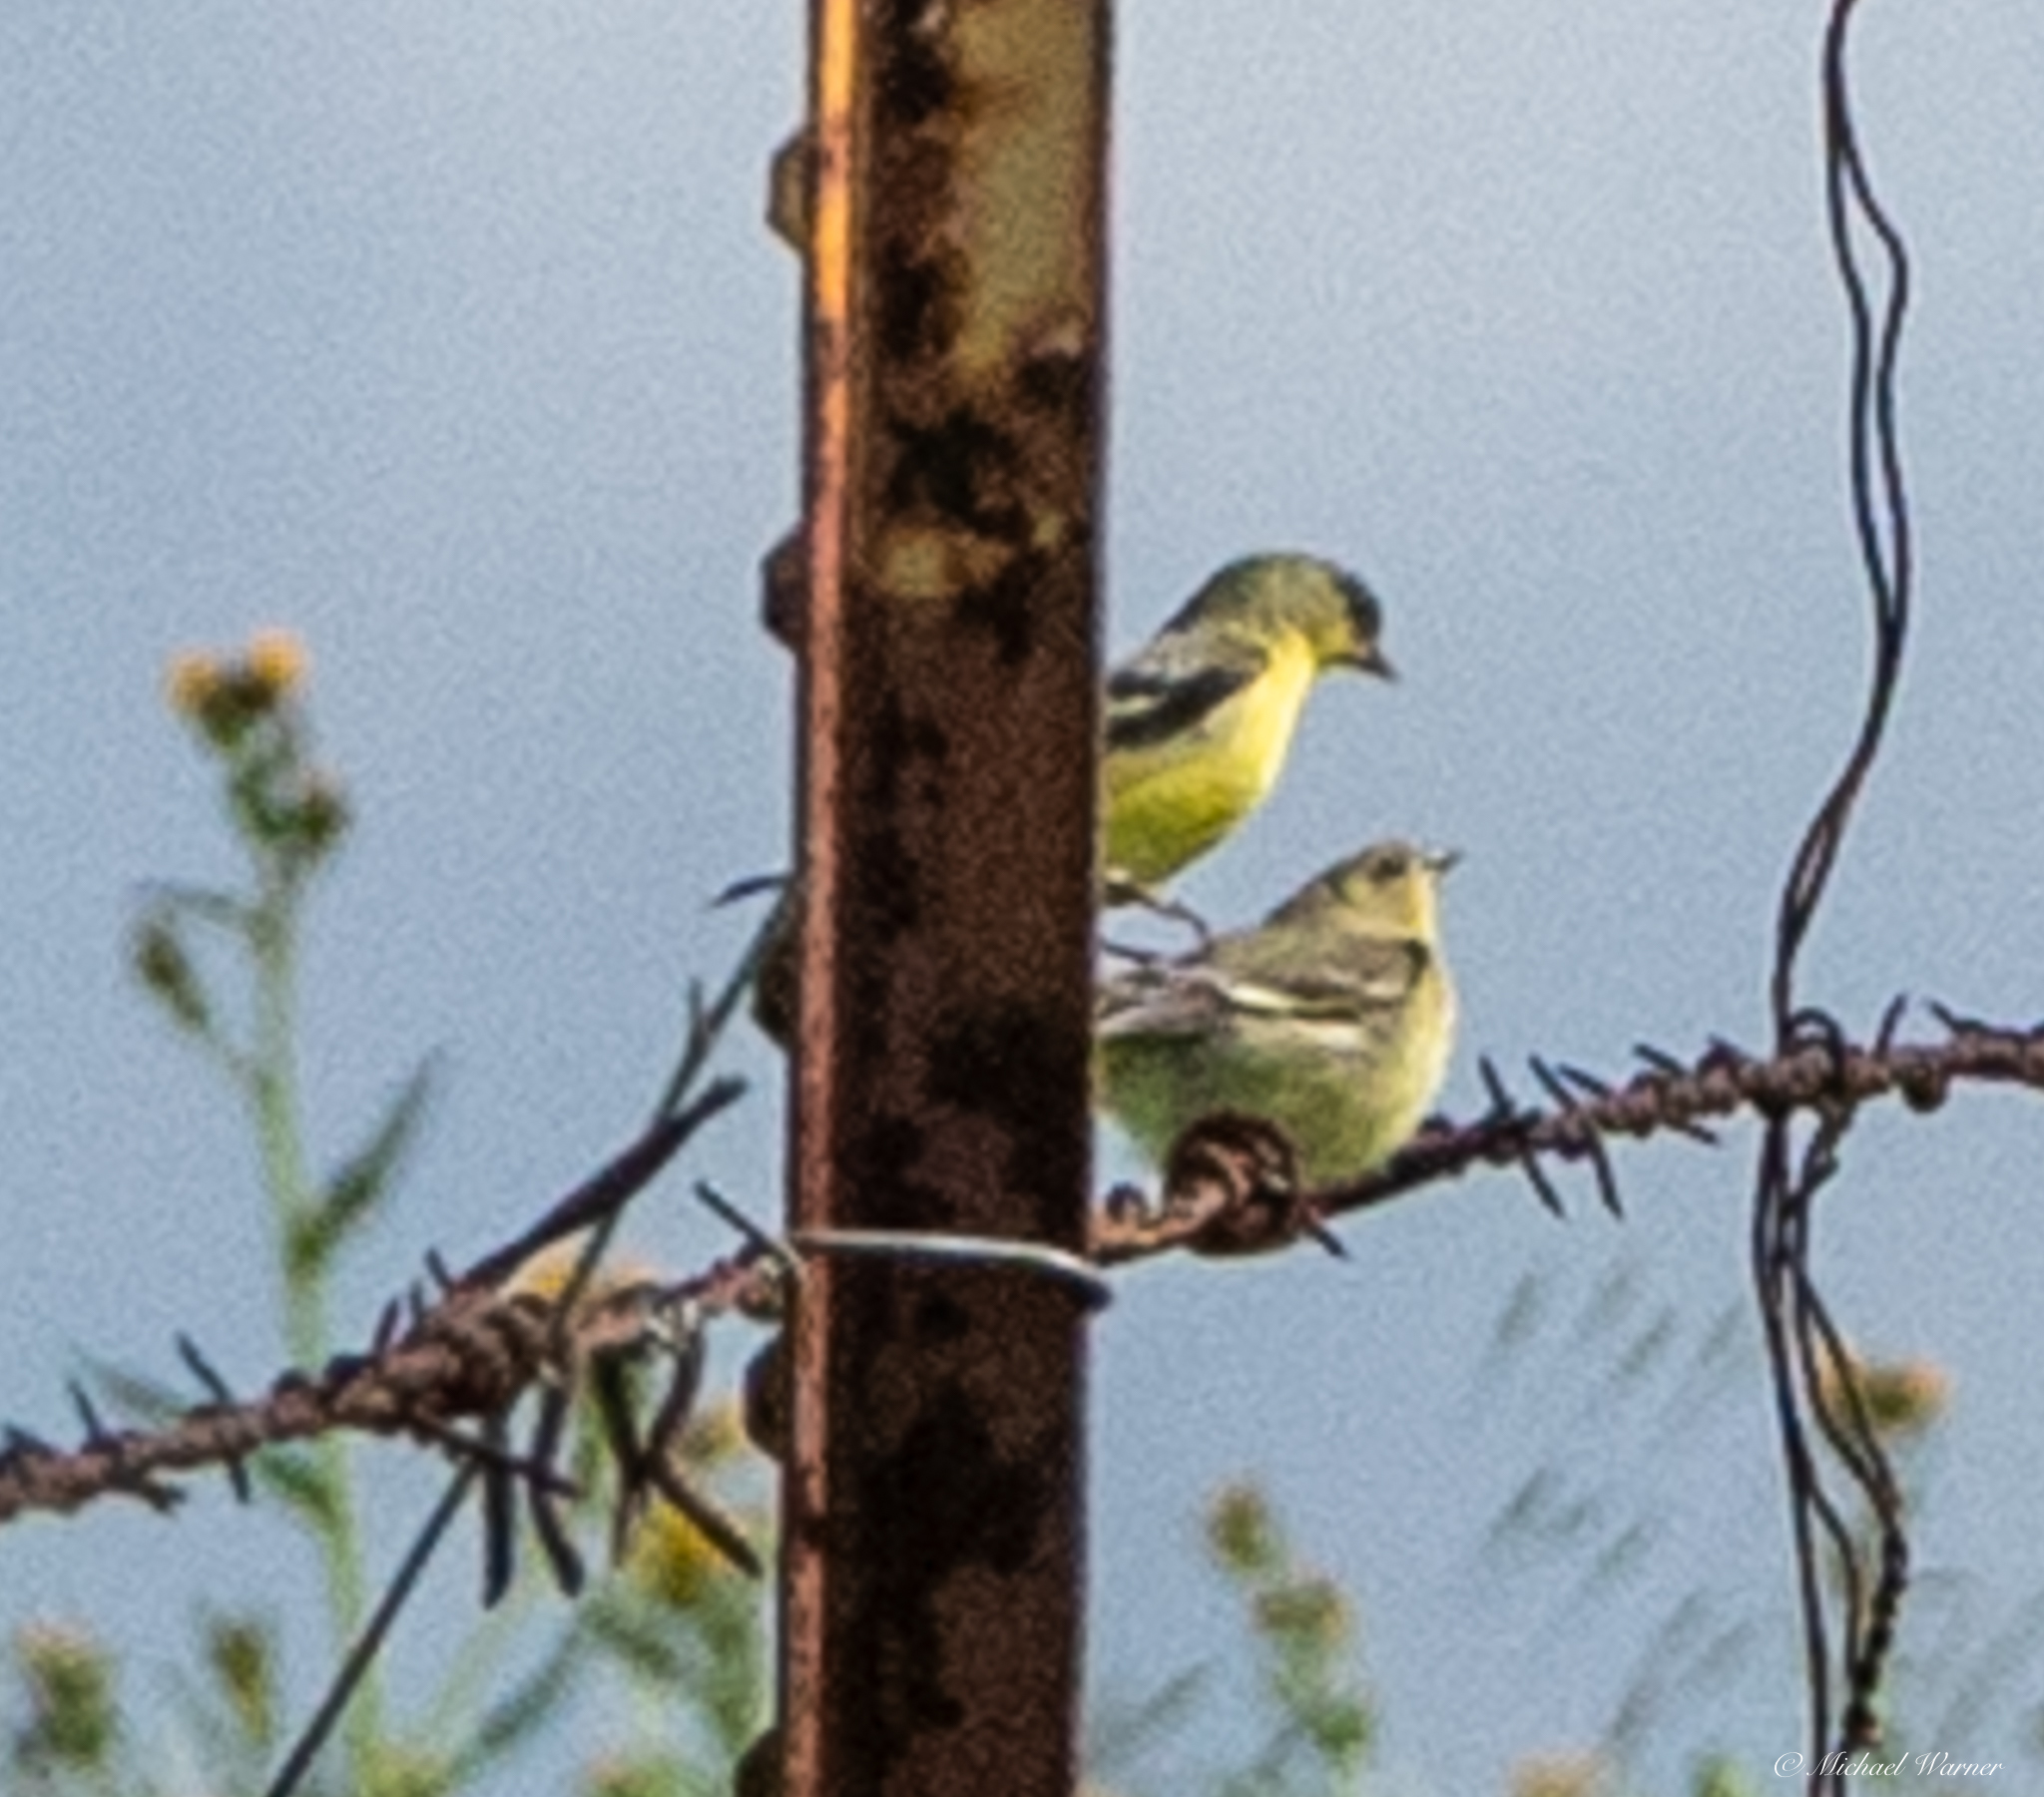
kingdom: Animalia
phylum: Chordata
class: Aves
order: Passeriformes
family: Fringillidae
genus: Spinus
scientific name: Spinus psaltria
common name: Lesser goldfinch
